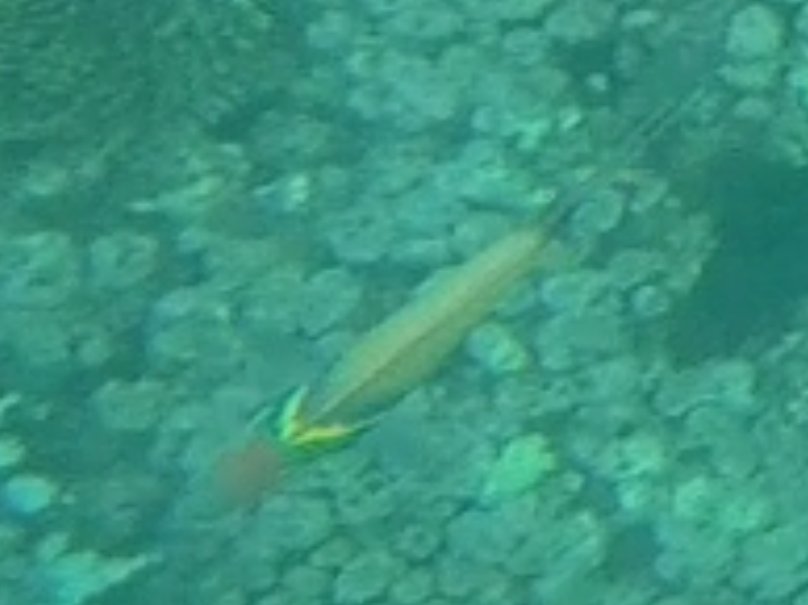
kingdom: Animalia
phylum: Chordata
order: Perciformes
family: Labridae
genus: Thalassoma
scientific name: Thalassoma hebraicum
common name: Goldbar wrasse
